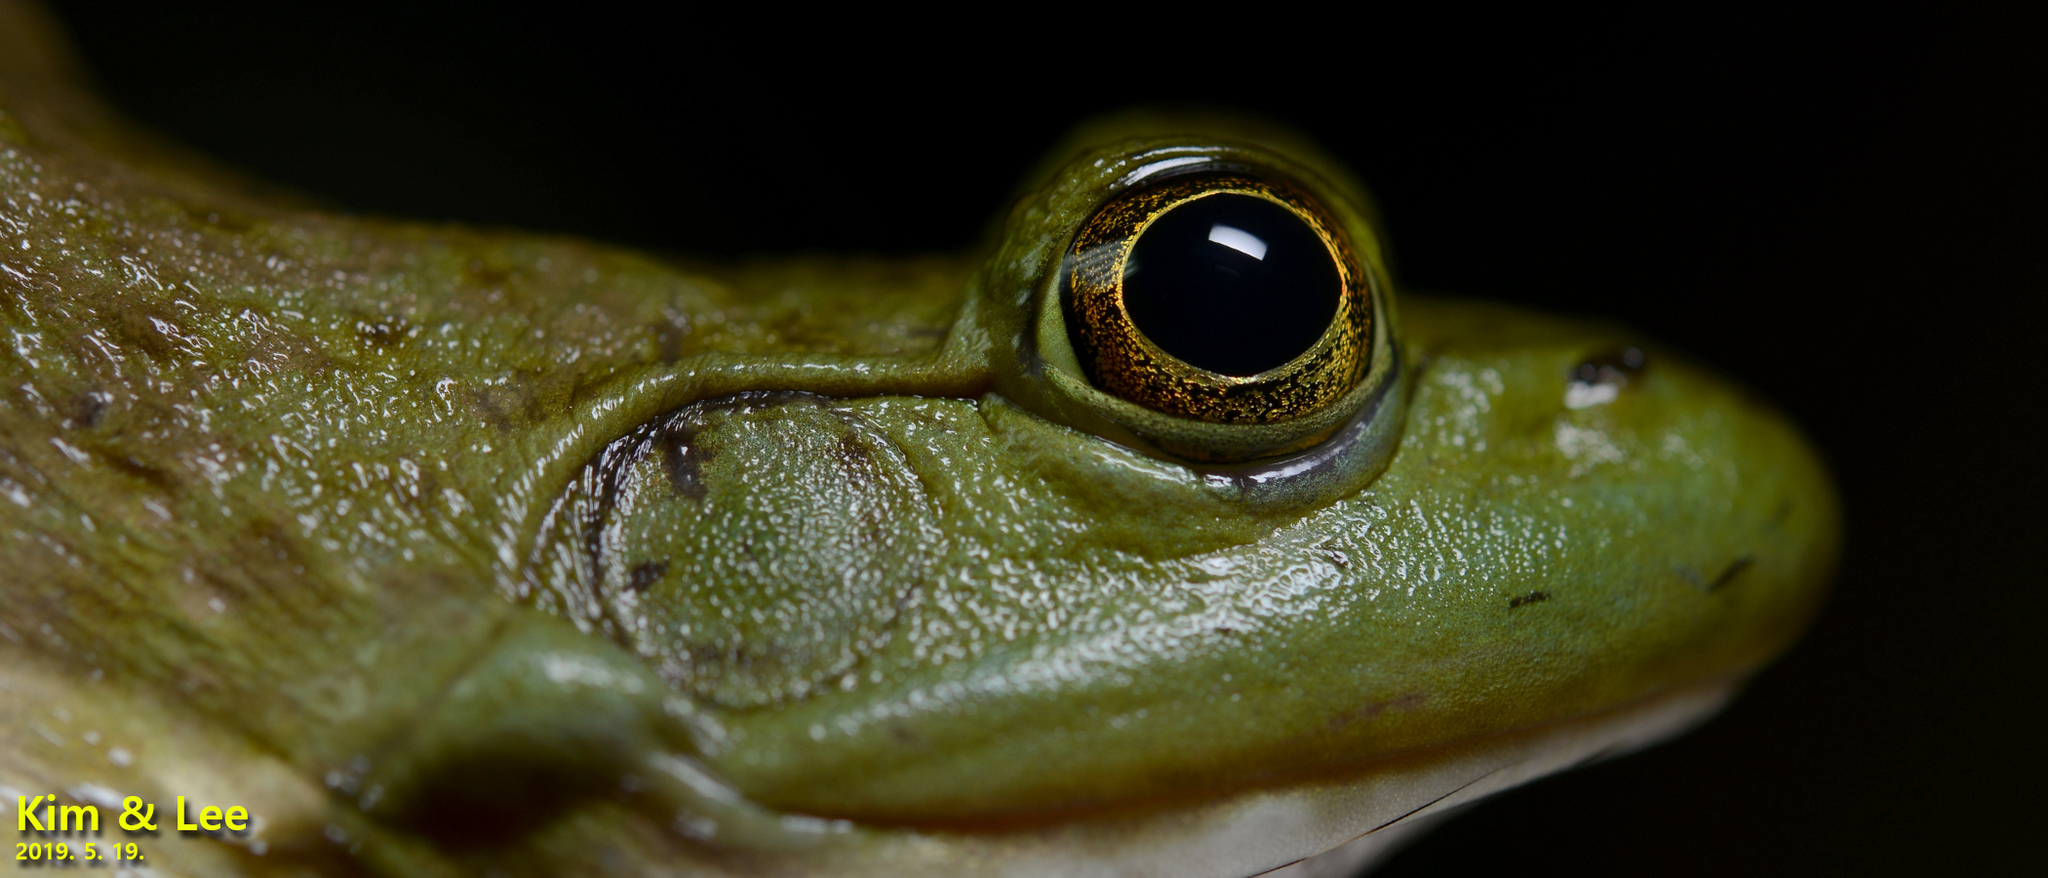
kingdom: Animalia
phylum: Chordata
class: Amphibia
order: Anura
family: Ranidae
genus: Lithobates
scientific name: Lithobates catesbeianus
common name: American bullfrog
